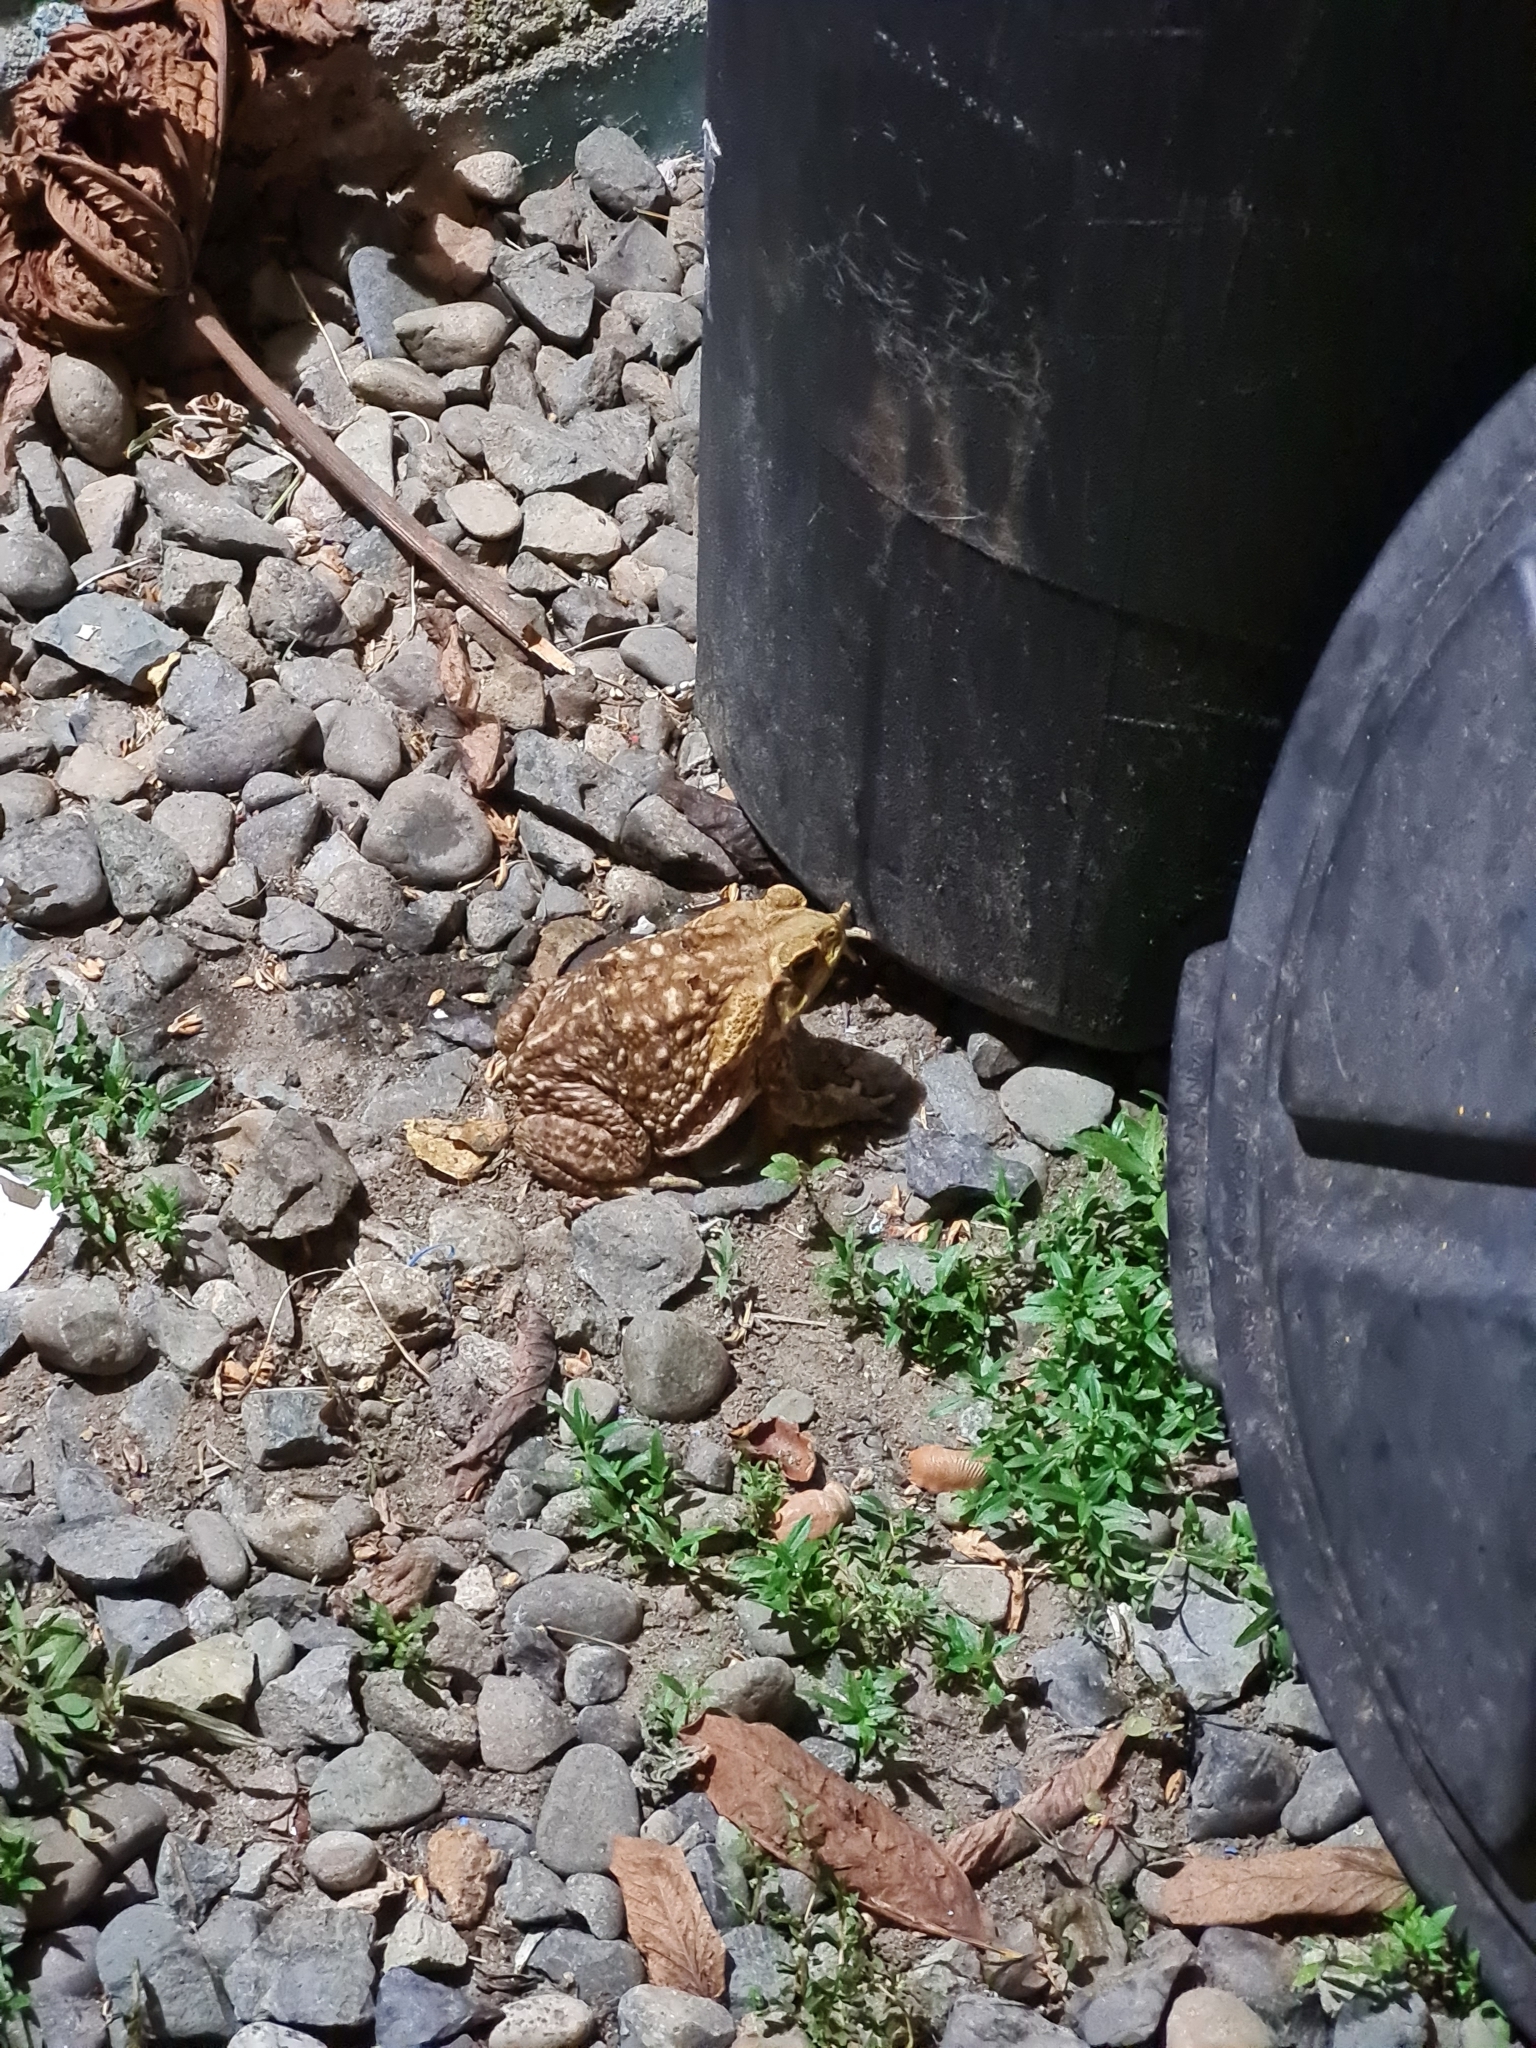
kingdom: Animalia
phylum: Chordata
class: Amphibia
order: Anura
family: Bufonidae
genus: Rhinella
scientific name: Rhinella horribilis
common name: Mesoamerican cane toad
